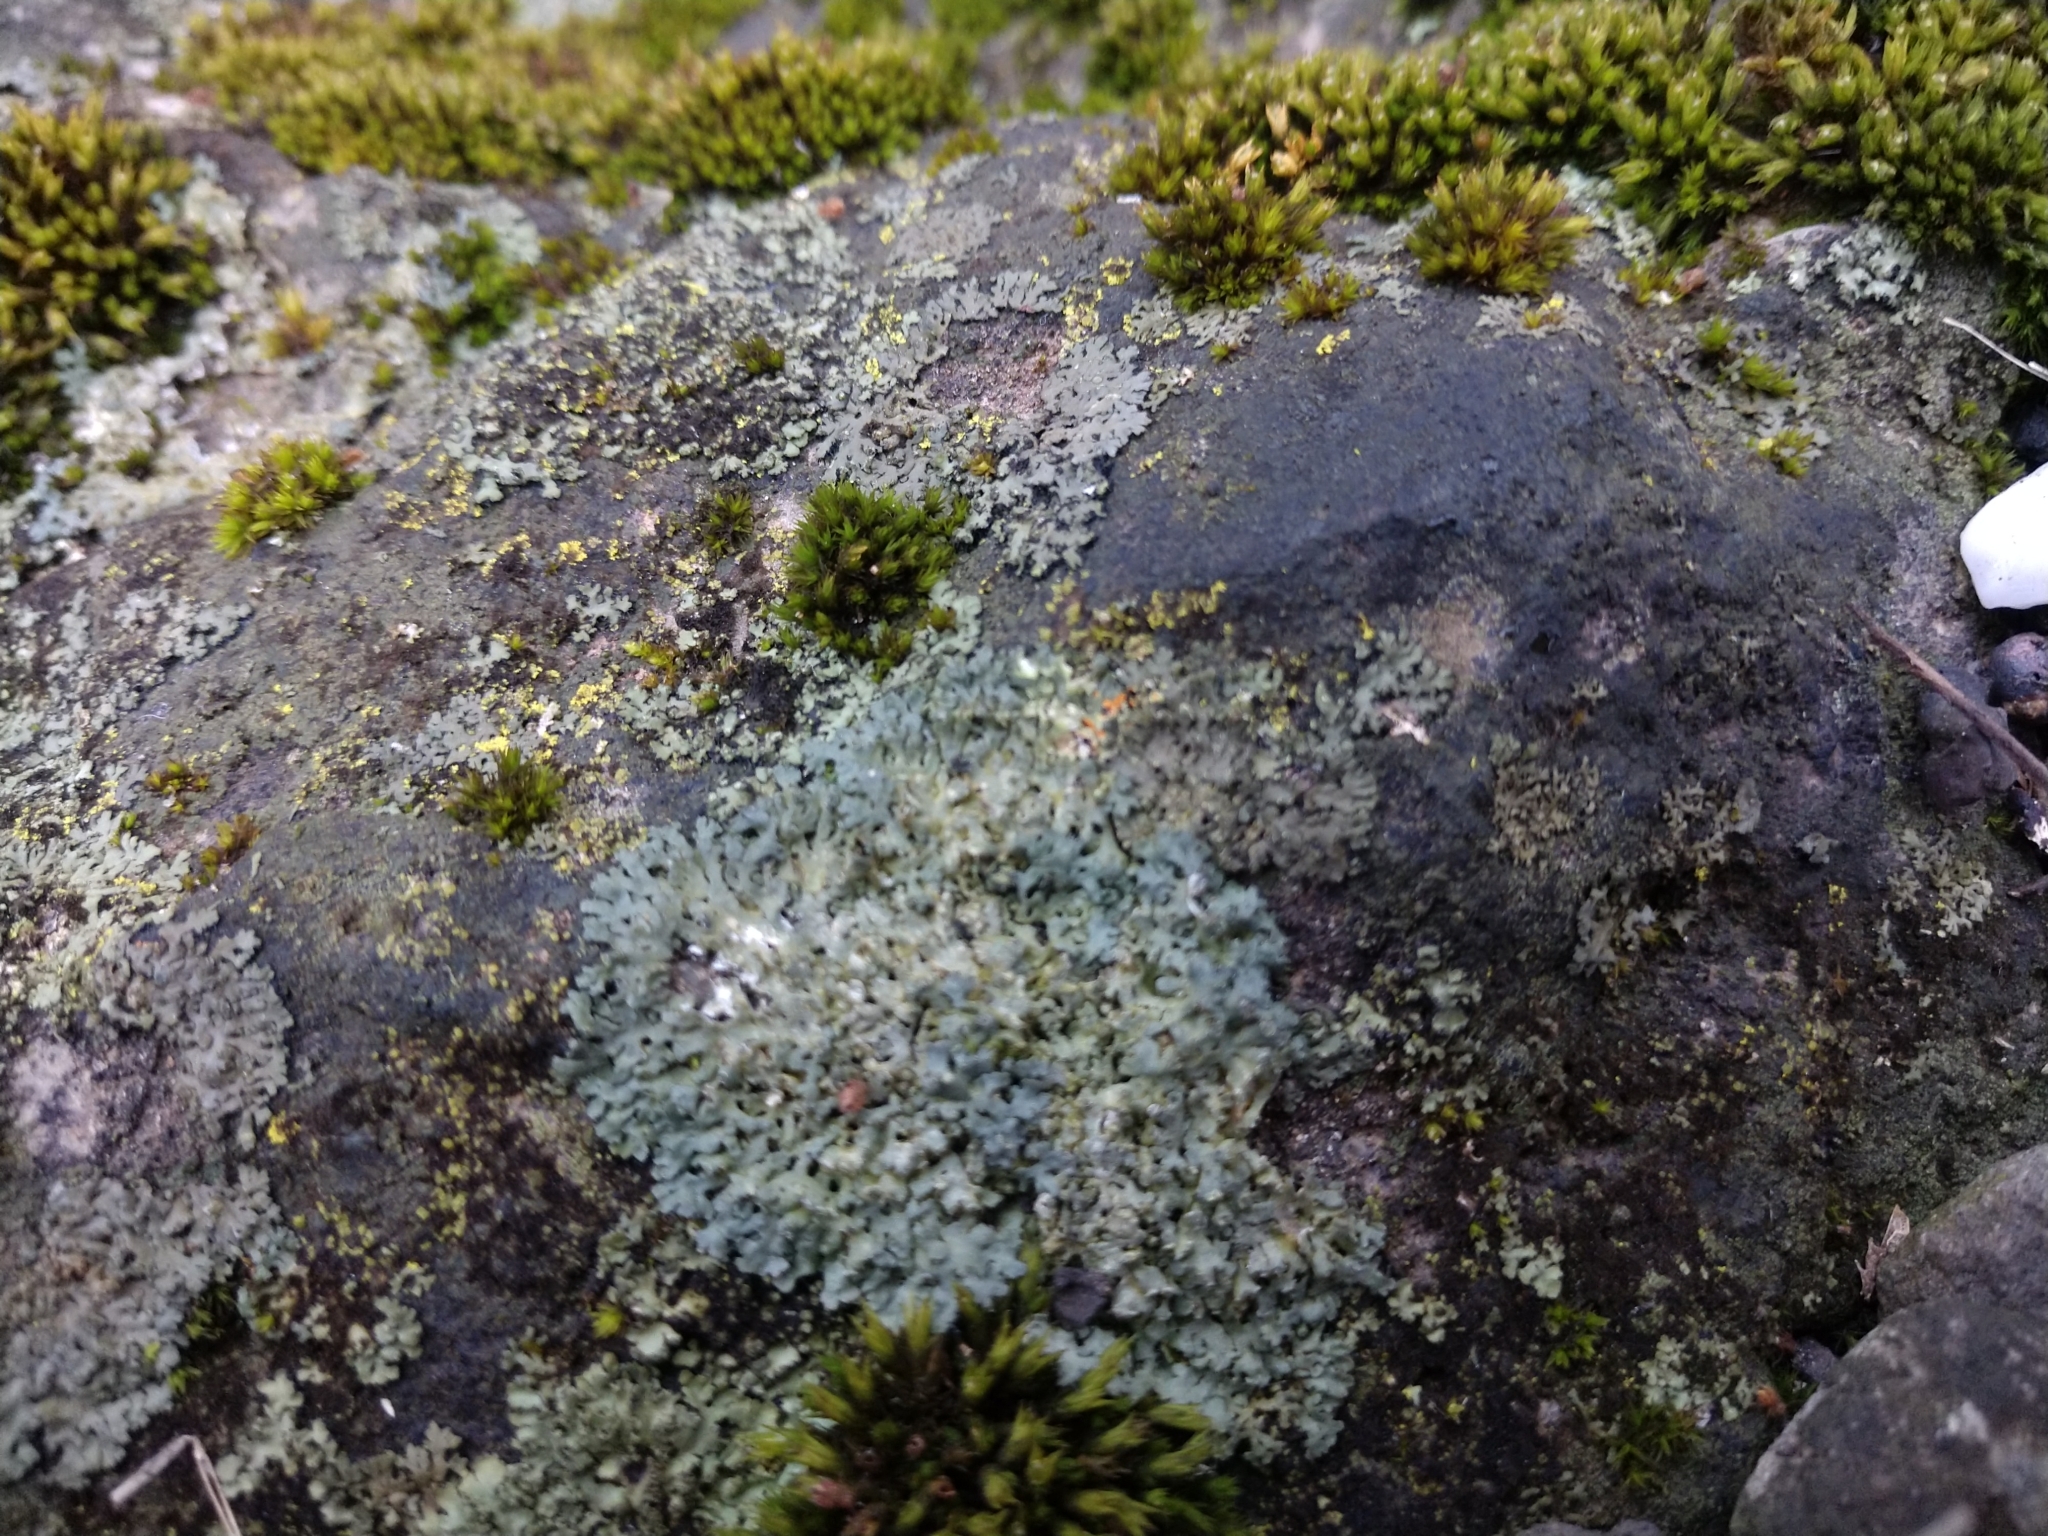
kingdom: Fungi
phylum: Ascomycota
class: Lecanoromycetes
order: Caliciales
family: Physciaceae
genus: Phaeophyscia
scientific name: Phaeophyscia rubropulchra
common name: Orange-cored shadow lichen
